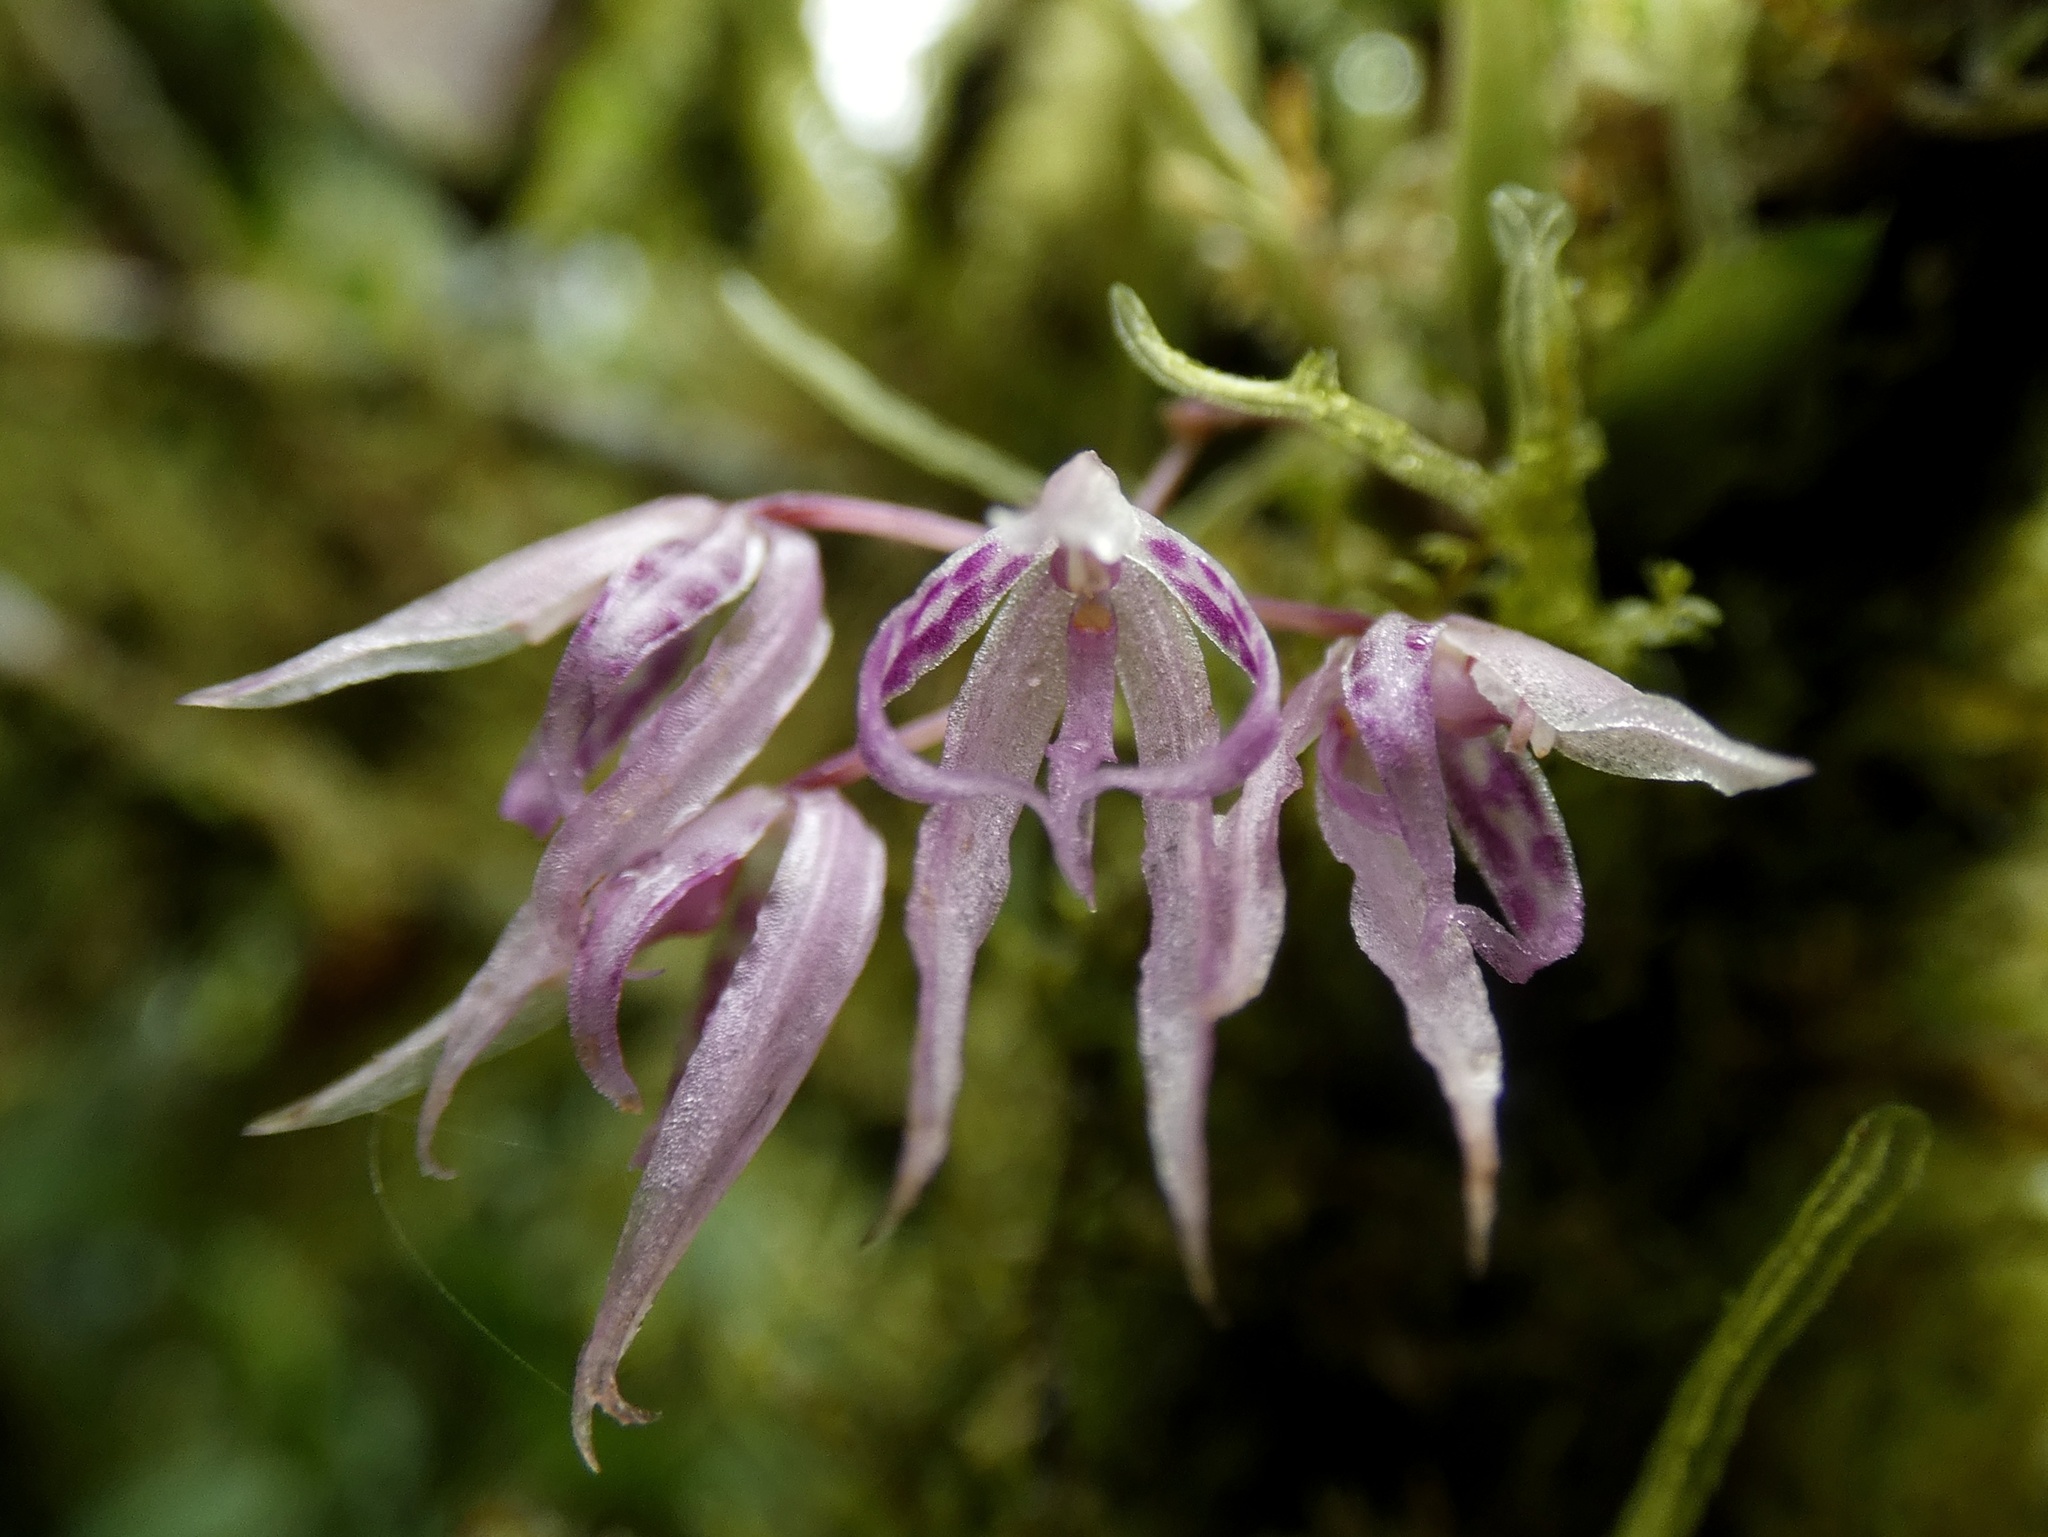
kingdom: Plantae
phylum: Tracheophyta
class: Liliopsida
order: Asparagales
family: Orchidaceae
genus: Macroclinium
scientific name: Macroclinium lineare
